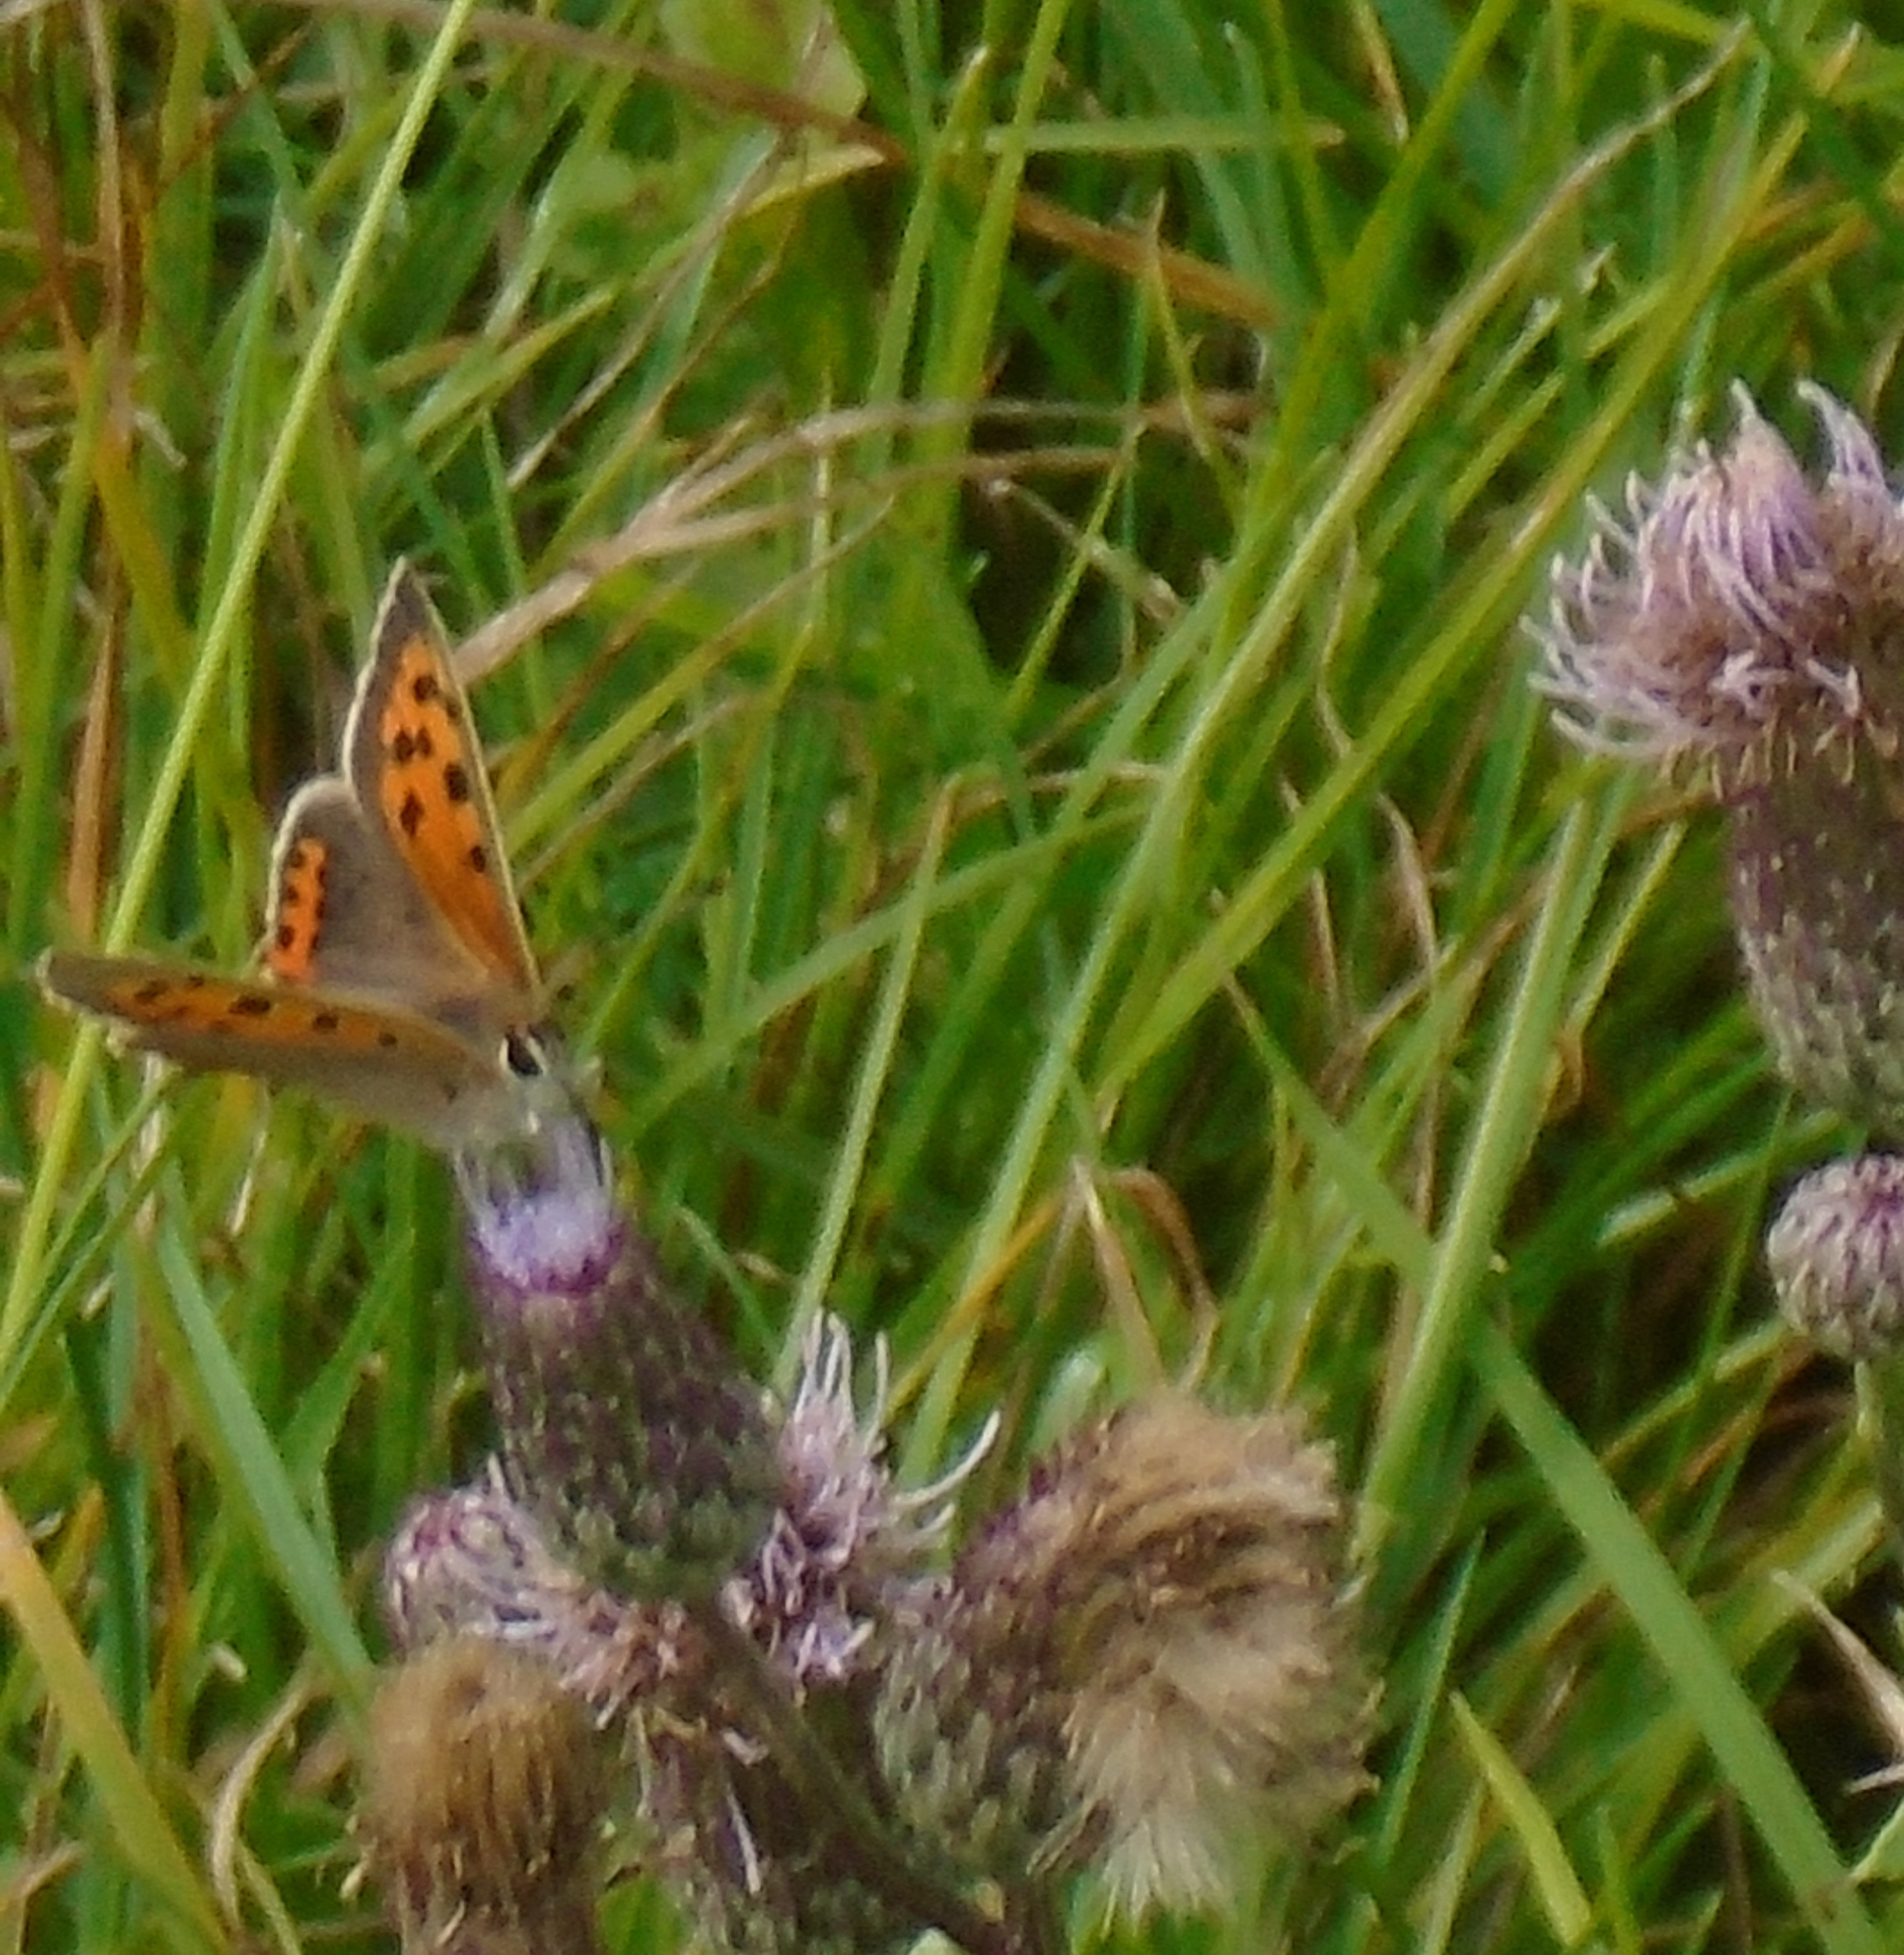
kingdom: Animalia
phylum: Arthropoda
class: Insecta
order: Lepidoptera
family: Lycaenidae
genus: Lycaena
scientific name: Lycaena phlaeas
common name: Small copper
